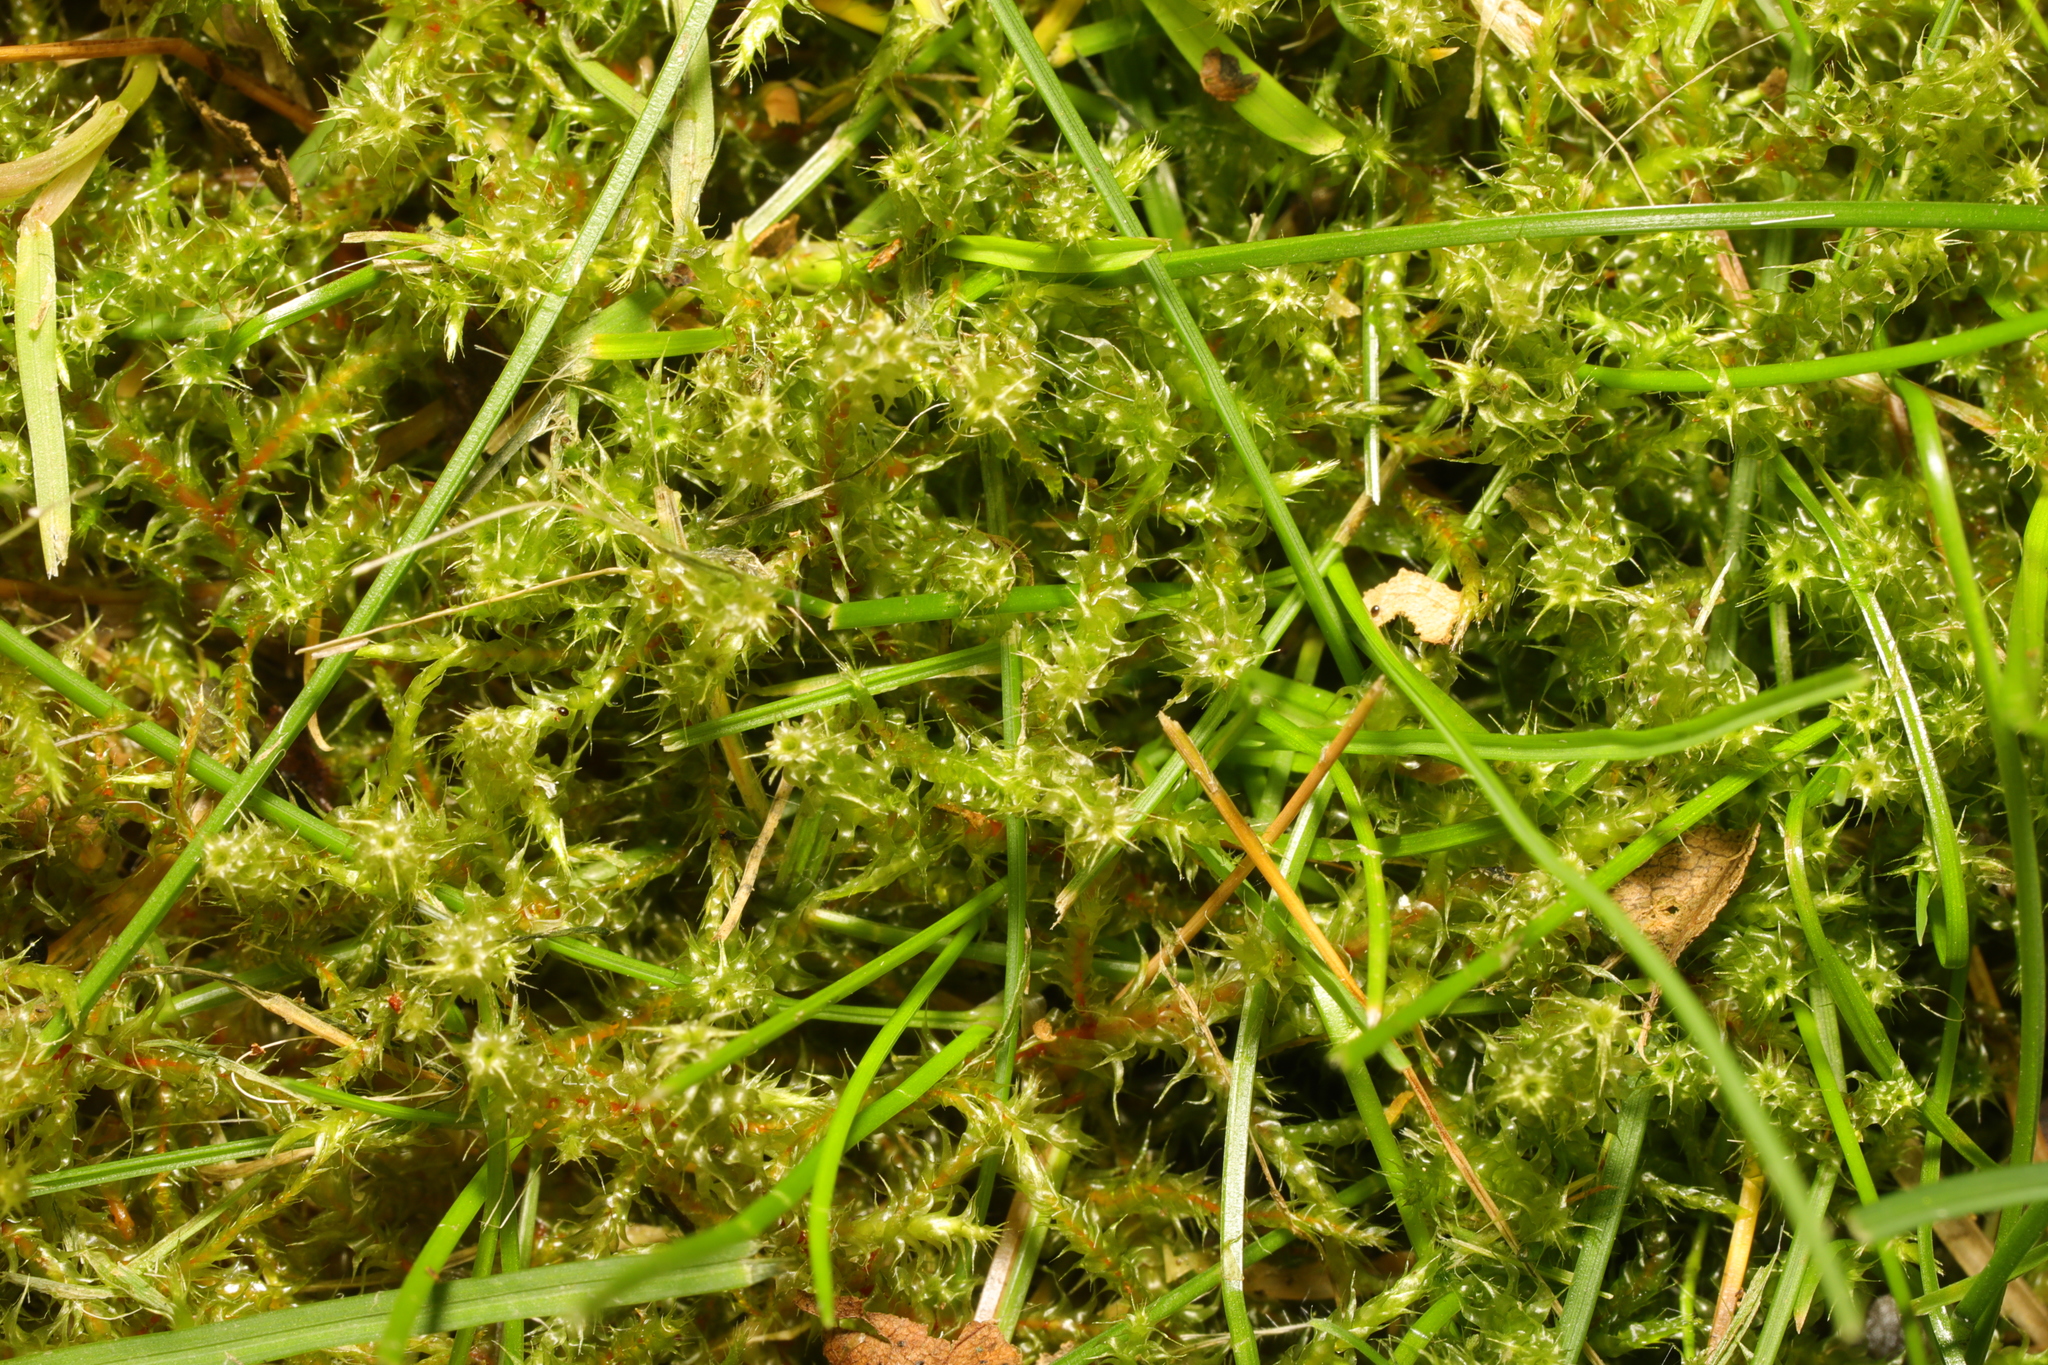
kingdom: Plantae
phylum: Bryophyta
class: Bryopsida
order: Hypnales
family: Hylocomiaceae
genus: Rhytidiadelphus
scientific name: Rhytidiadelphus squarrosus
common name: Springy turf-moss
